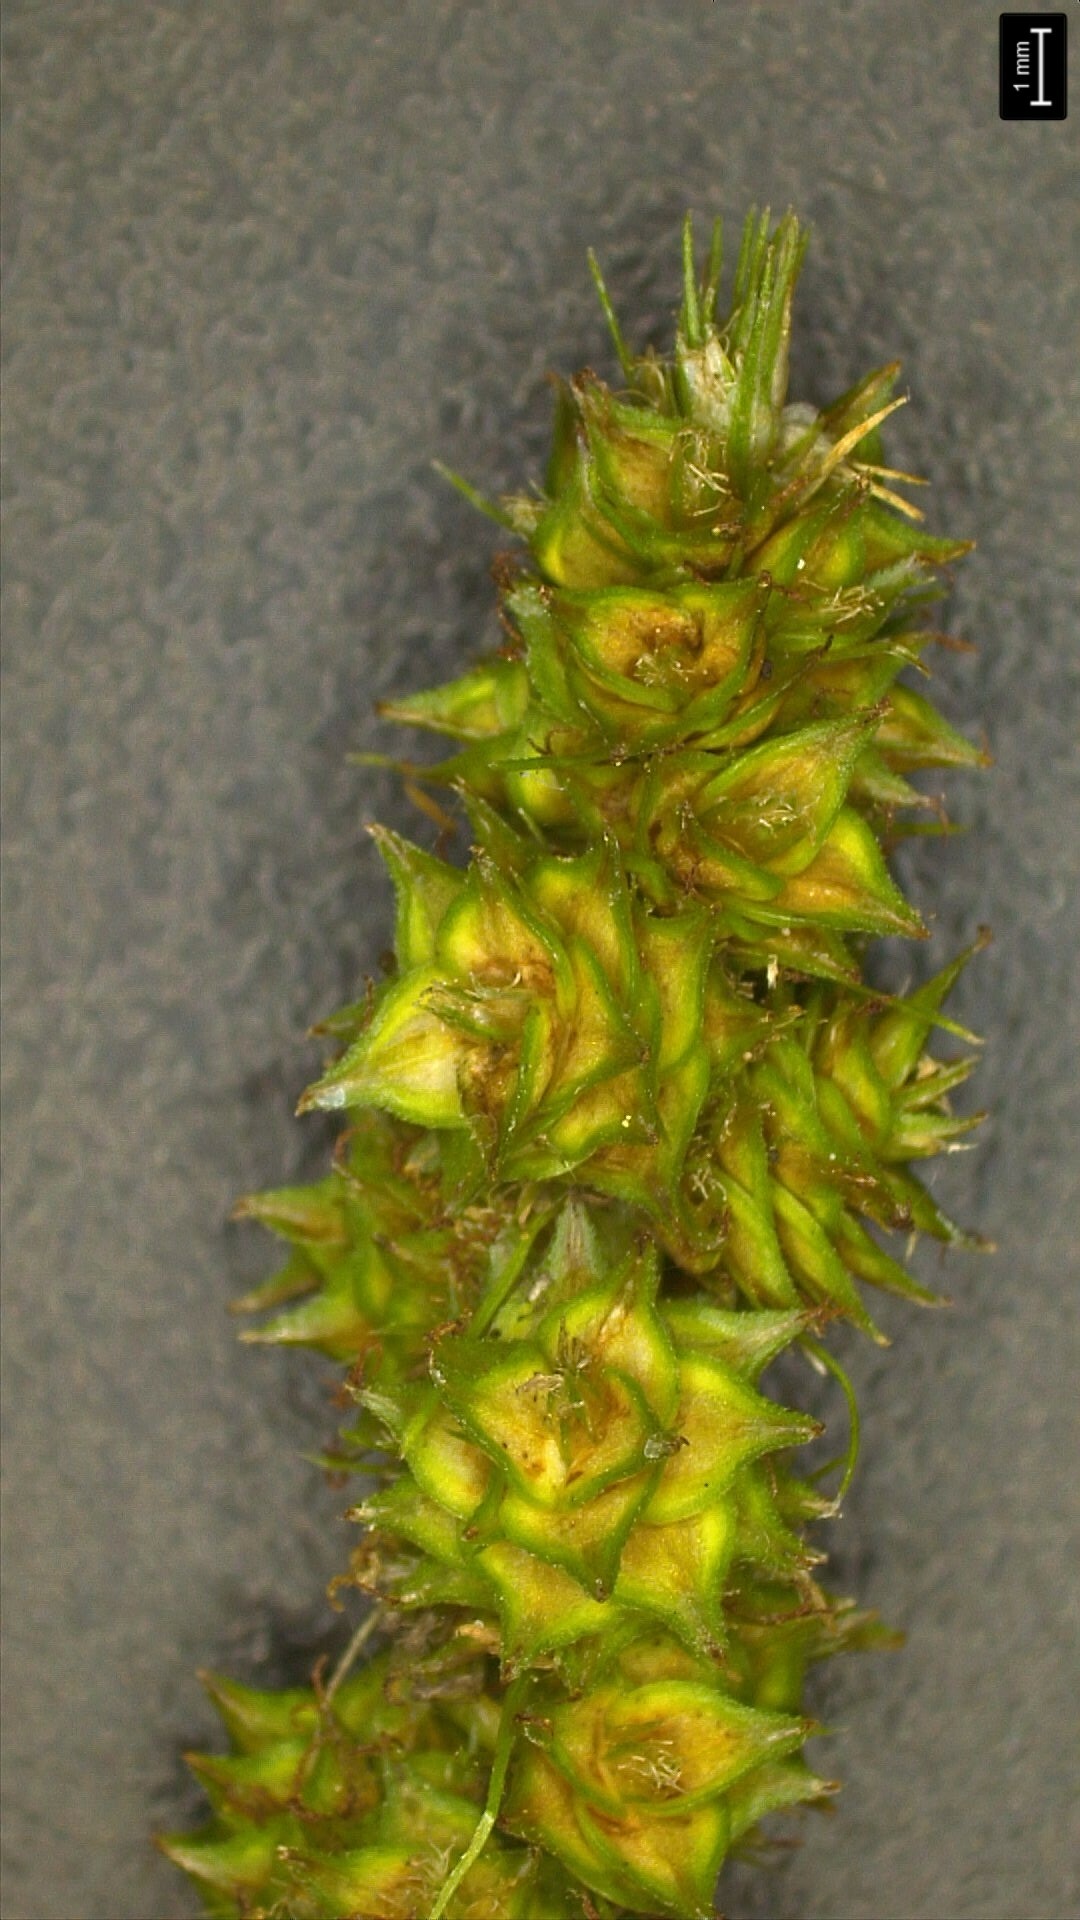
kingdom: Plantae
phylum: Tracheophyta
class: Liliopsida
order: Poales
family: Cyperaceae
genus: Carex
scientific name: Carex triangularis
